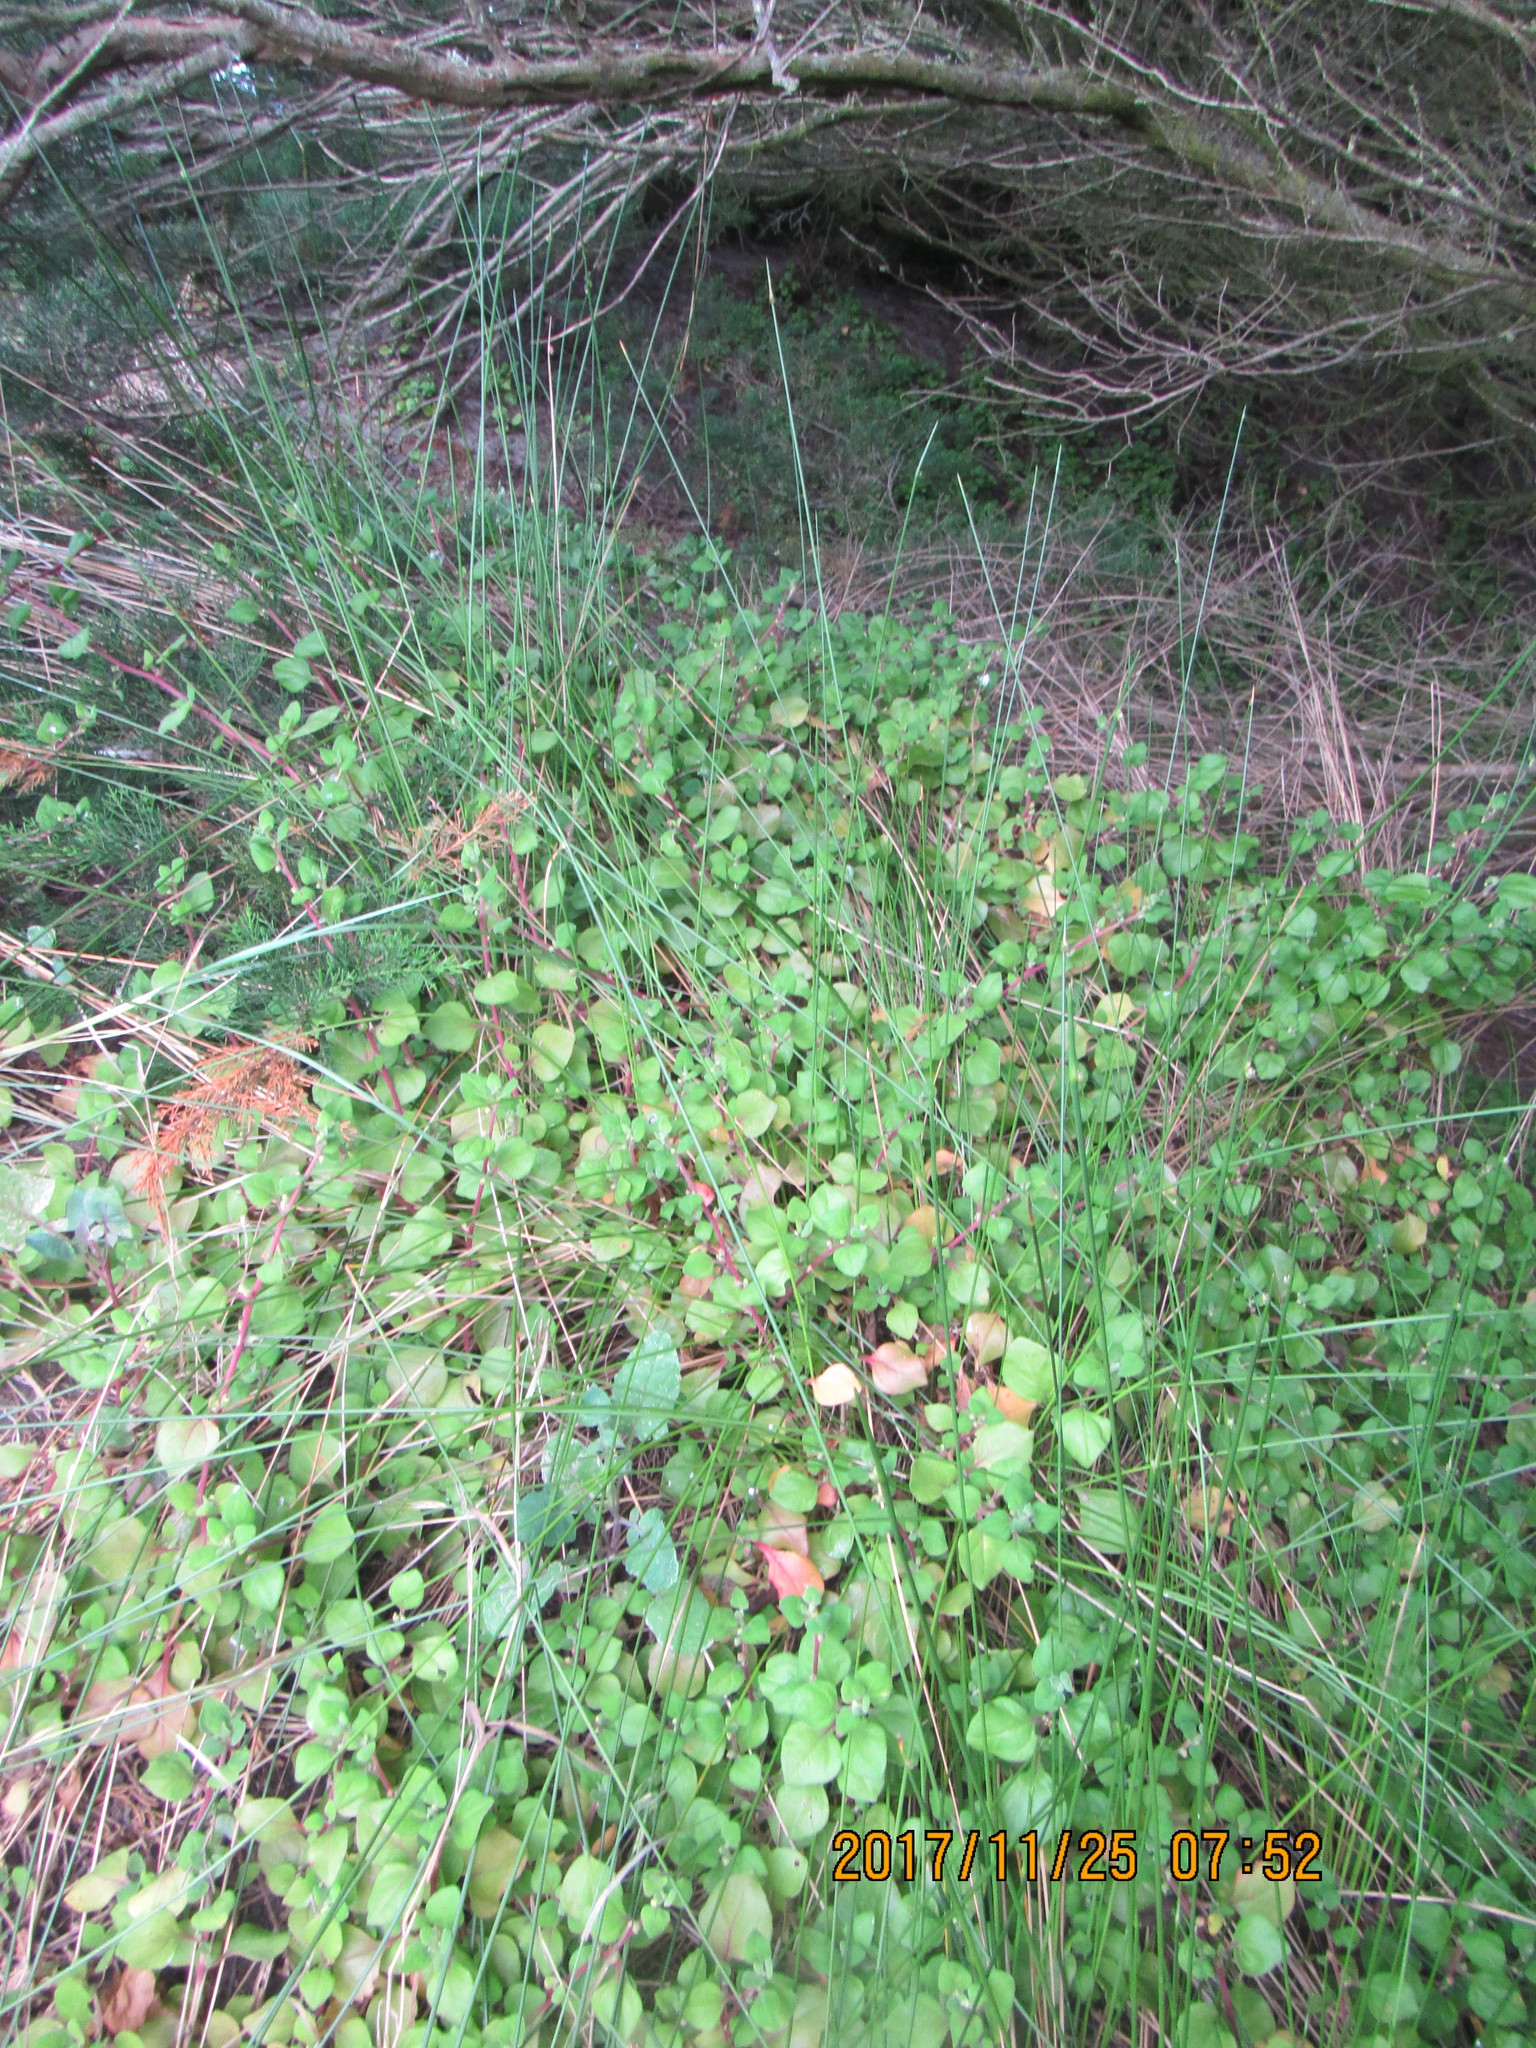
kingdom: Plantae
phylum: Tracheophyta
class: Magnoliopsida
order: Caryophyllales
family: Aizoaceae
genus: Tetragonia
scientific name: Tetragonia implexicoma
